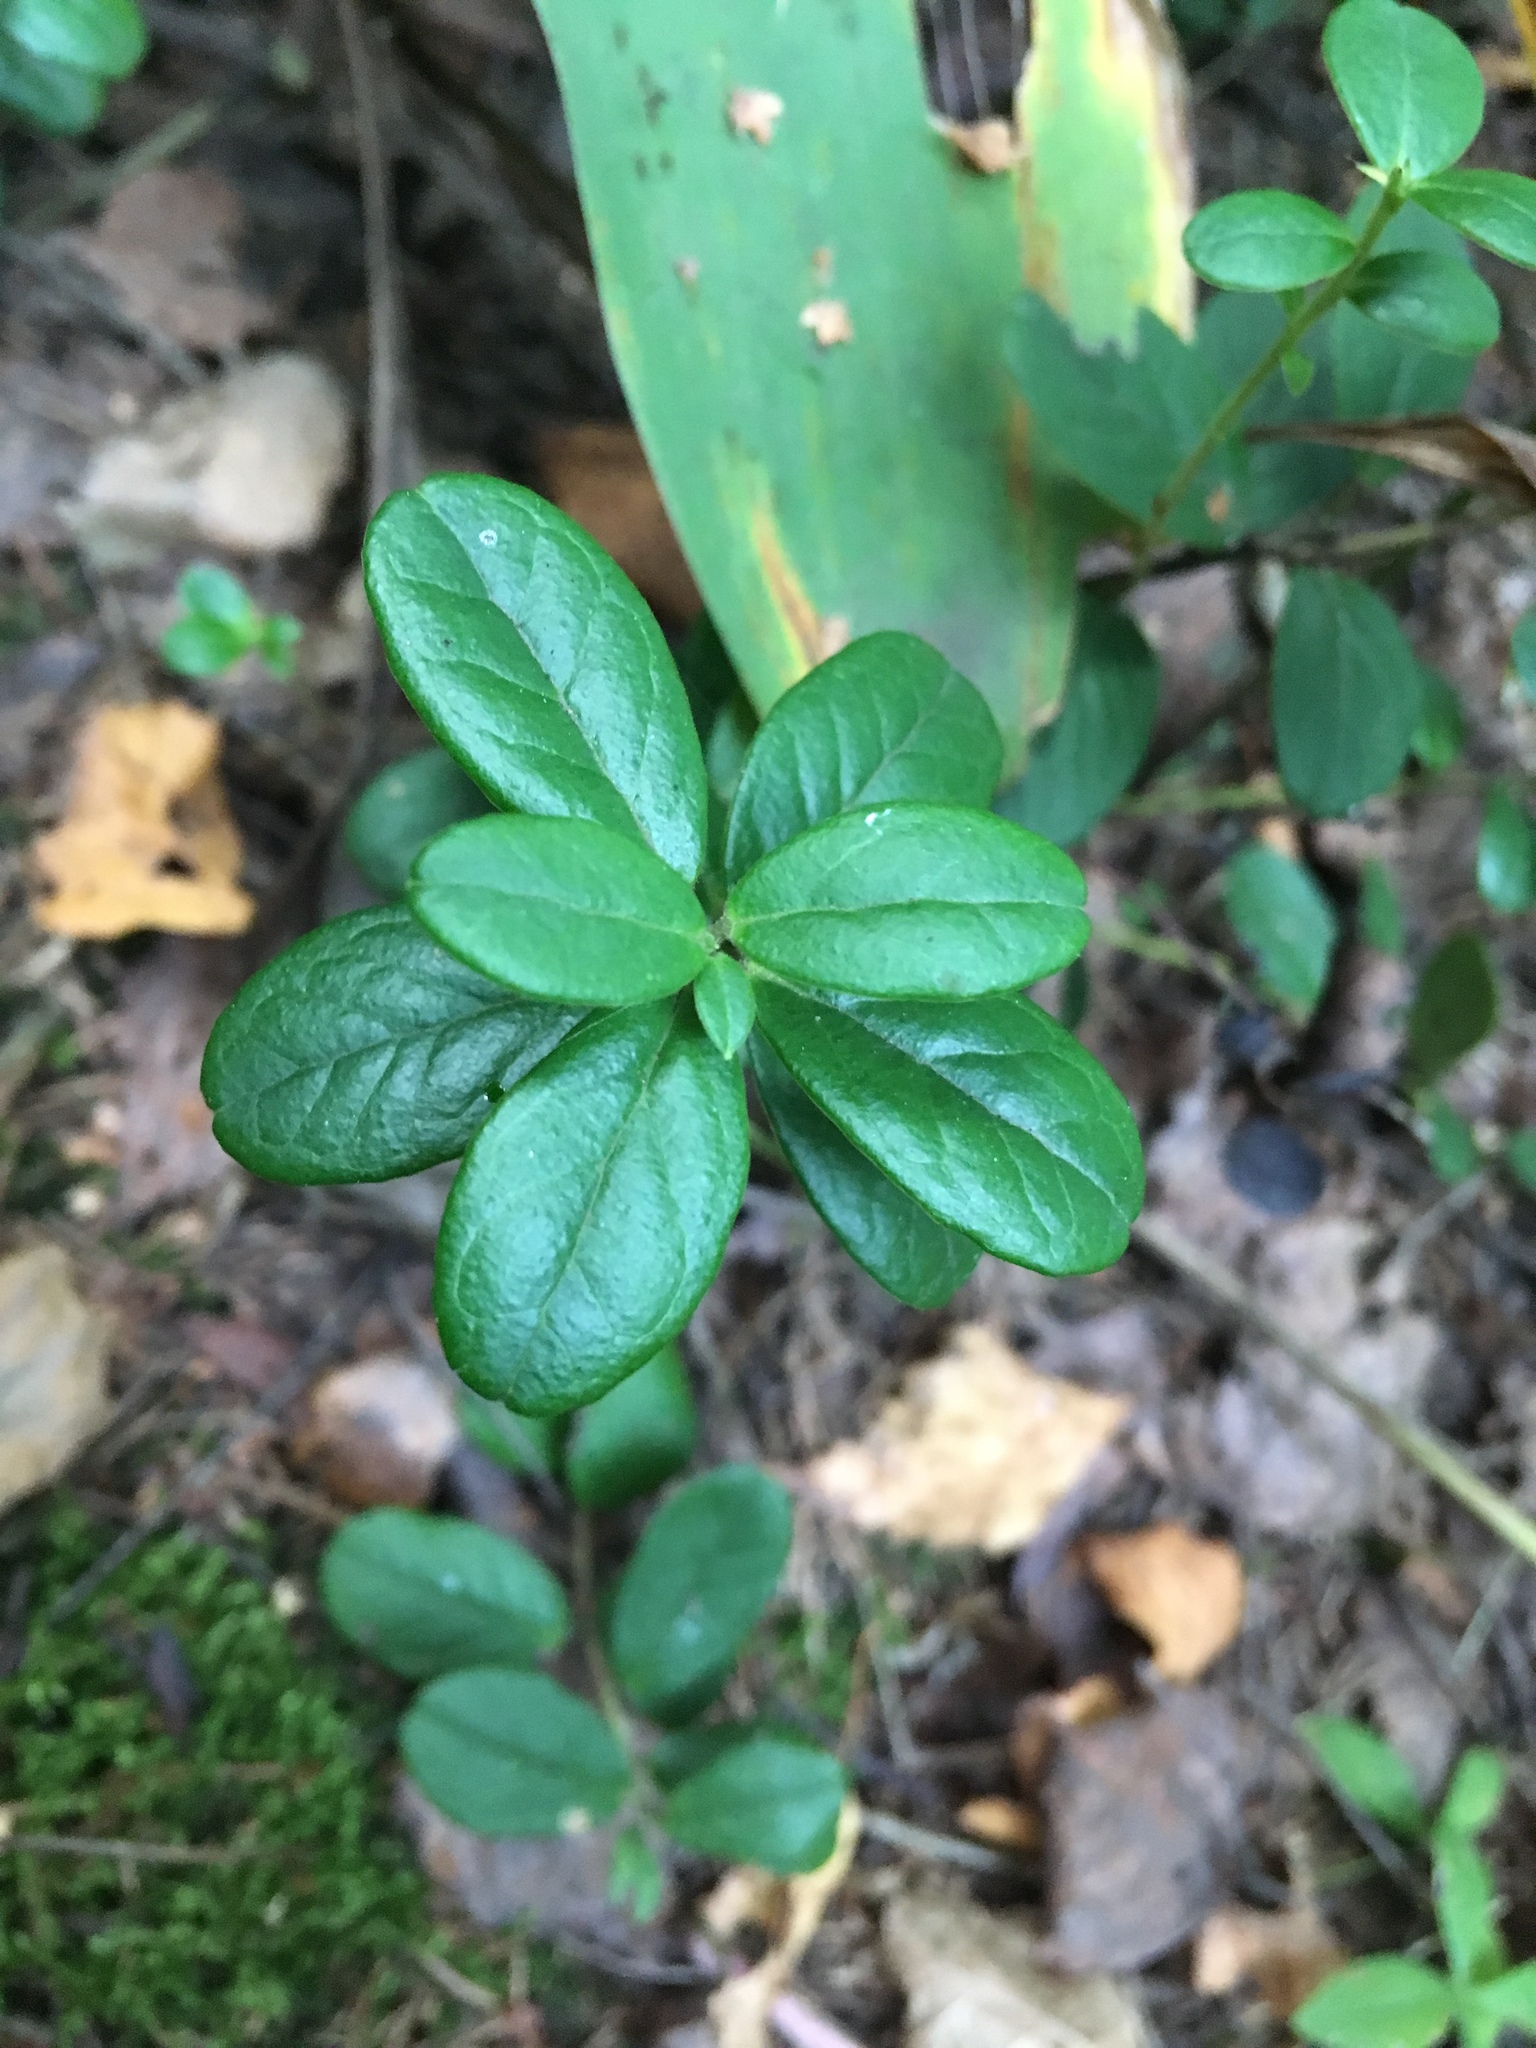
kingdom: Plantae
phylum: Tracheophyta
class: Magnoliopsida
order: Ericales
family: Ericaceae
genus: Vaccinium
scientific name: Vaccinium vitis-idaea
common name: Cowberry
